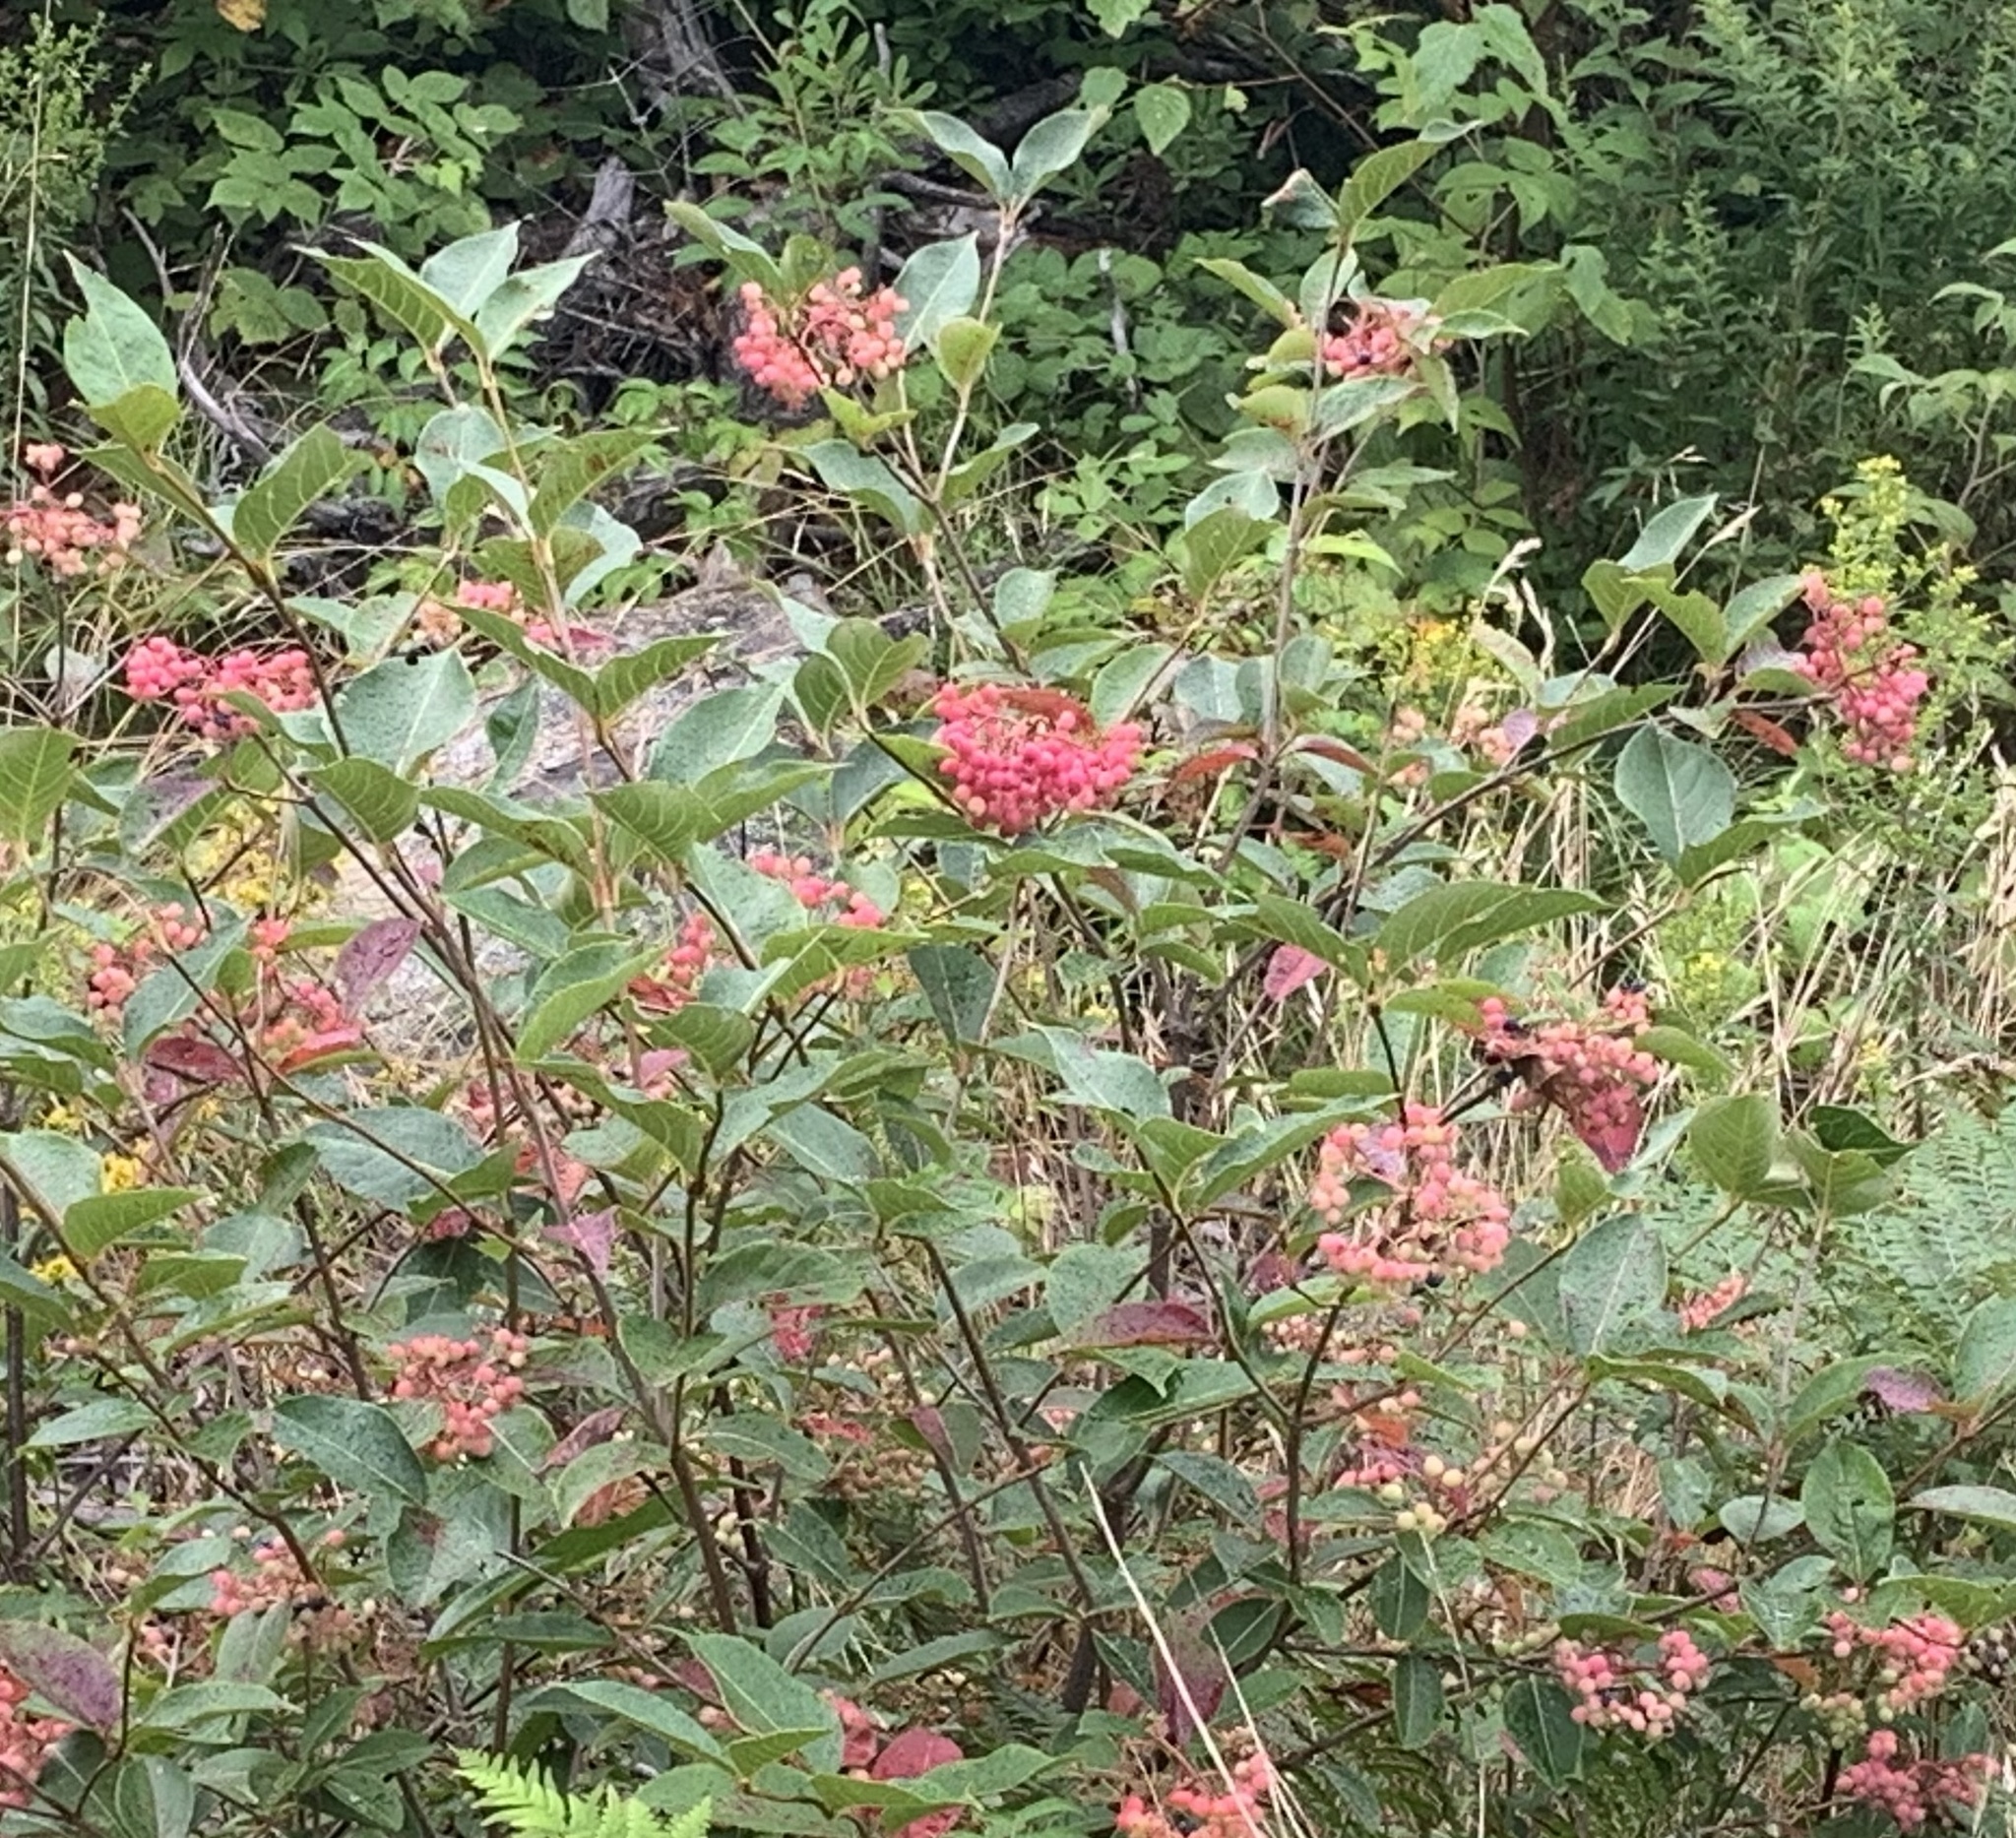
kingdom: Plantae
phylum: Tracheophyta
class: Magnoliopsida
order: Dipsacales
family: Viburnaceae
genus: Viburnum
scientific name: Viburnum cassinoides
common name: Swamp haw
